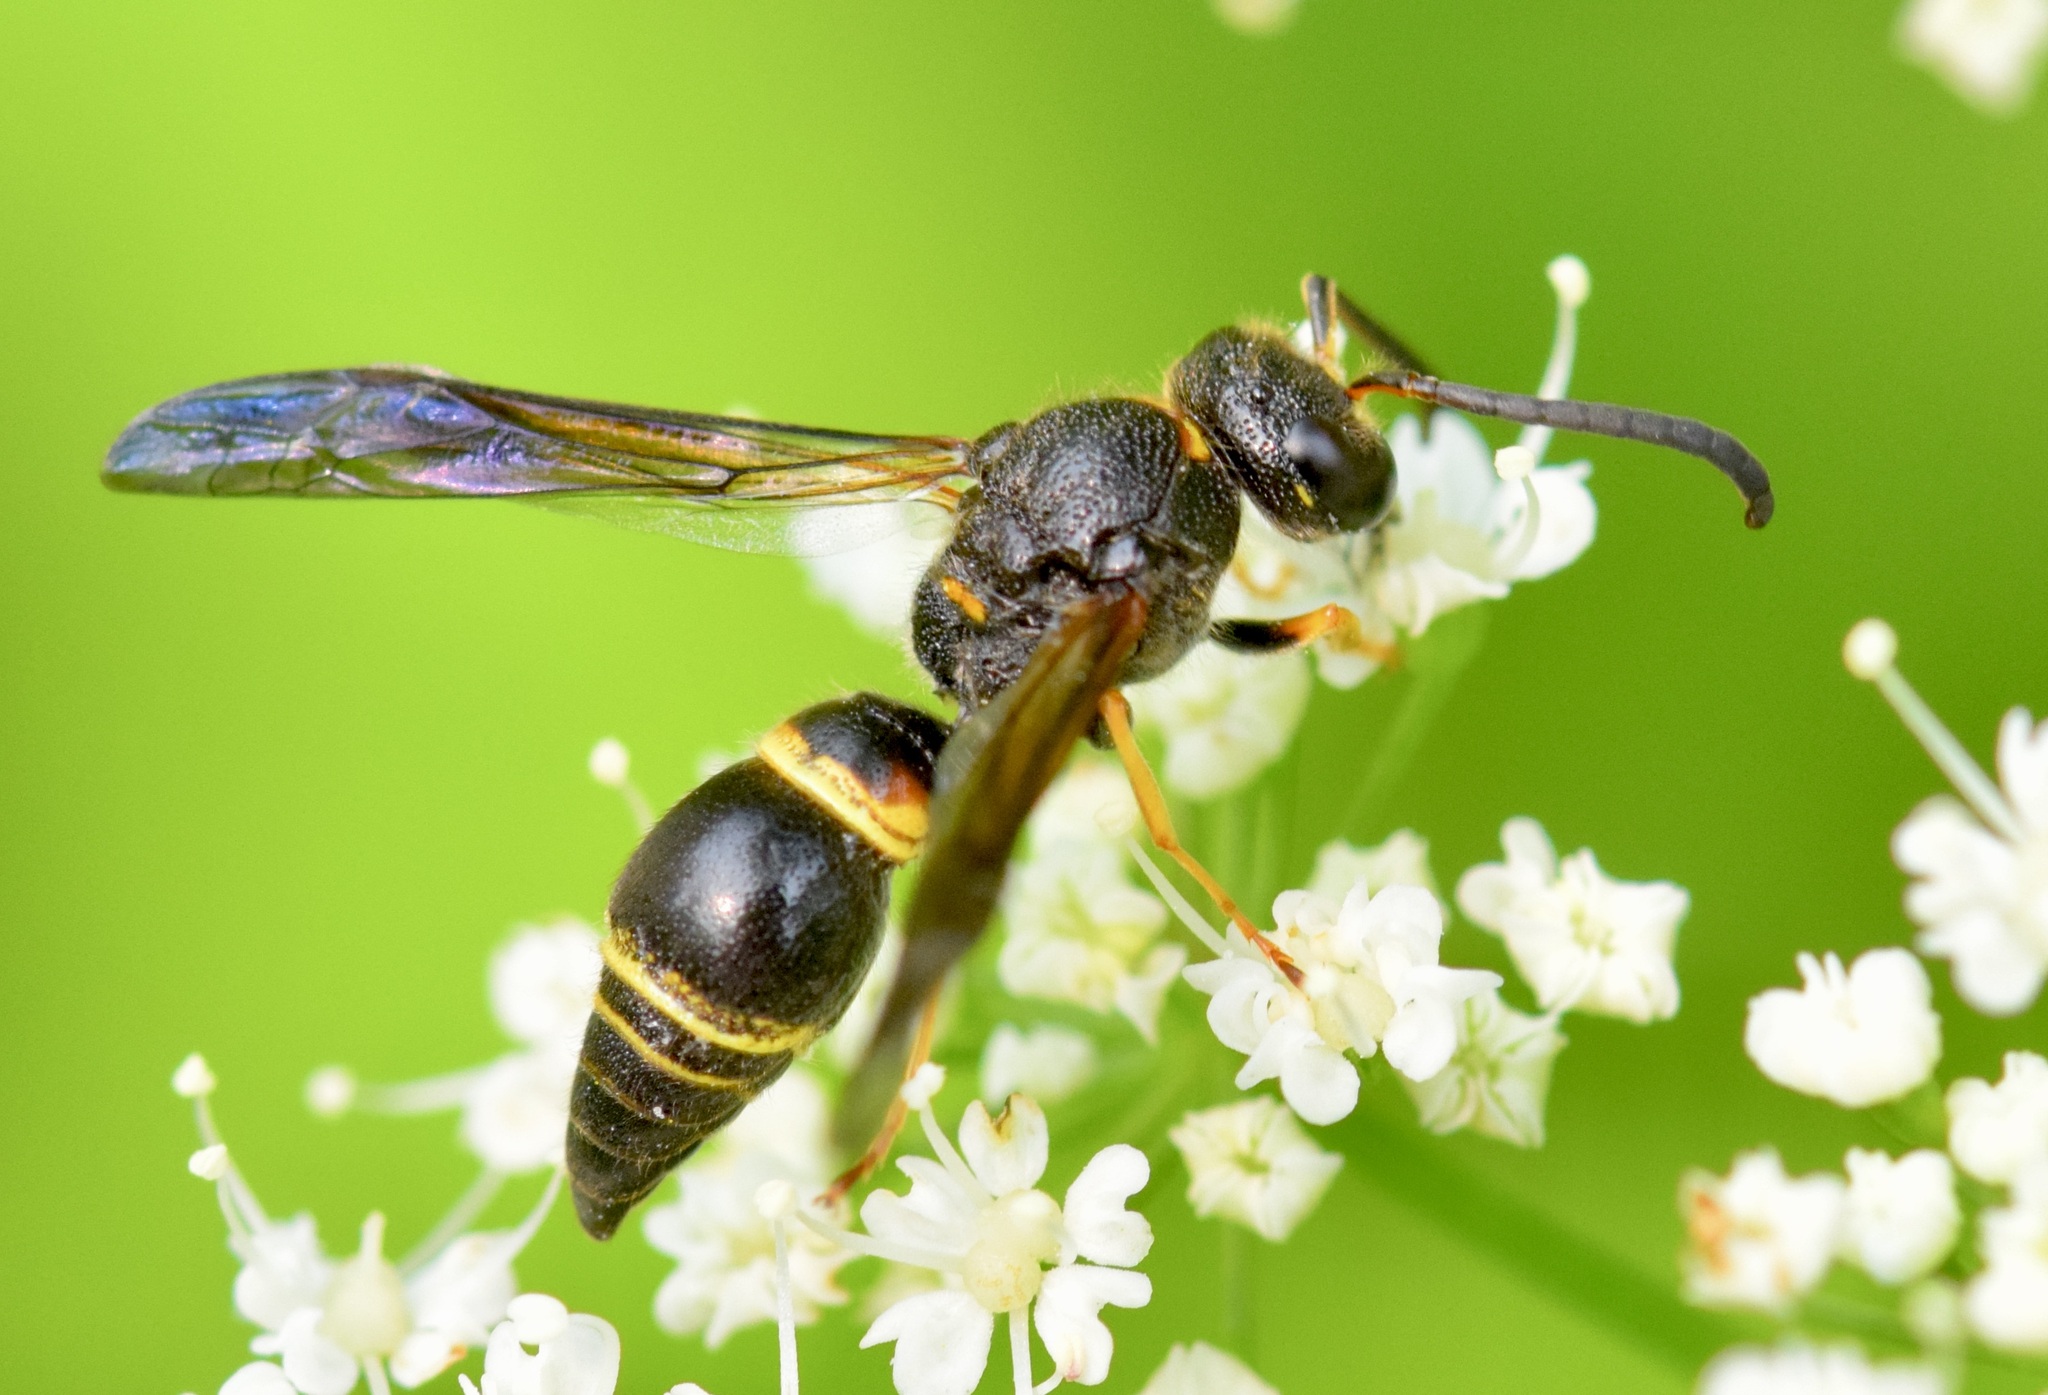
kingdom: Animalia
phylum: Arthropoda
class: Insecta
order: Hymenoptera
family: Vespidae
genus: Ancistrocerus
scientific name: Ancistrocerus unifasciatus
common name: One-banded mason wasp
